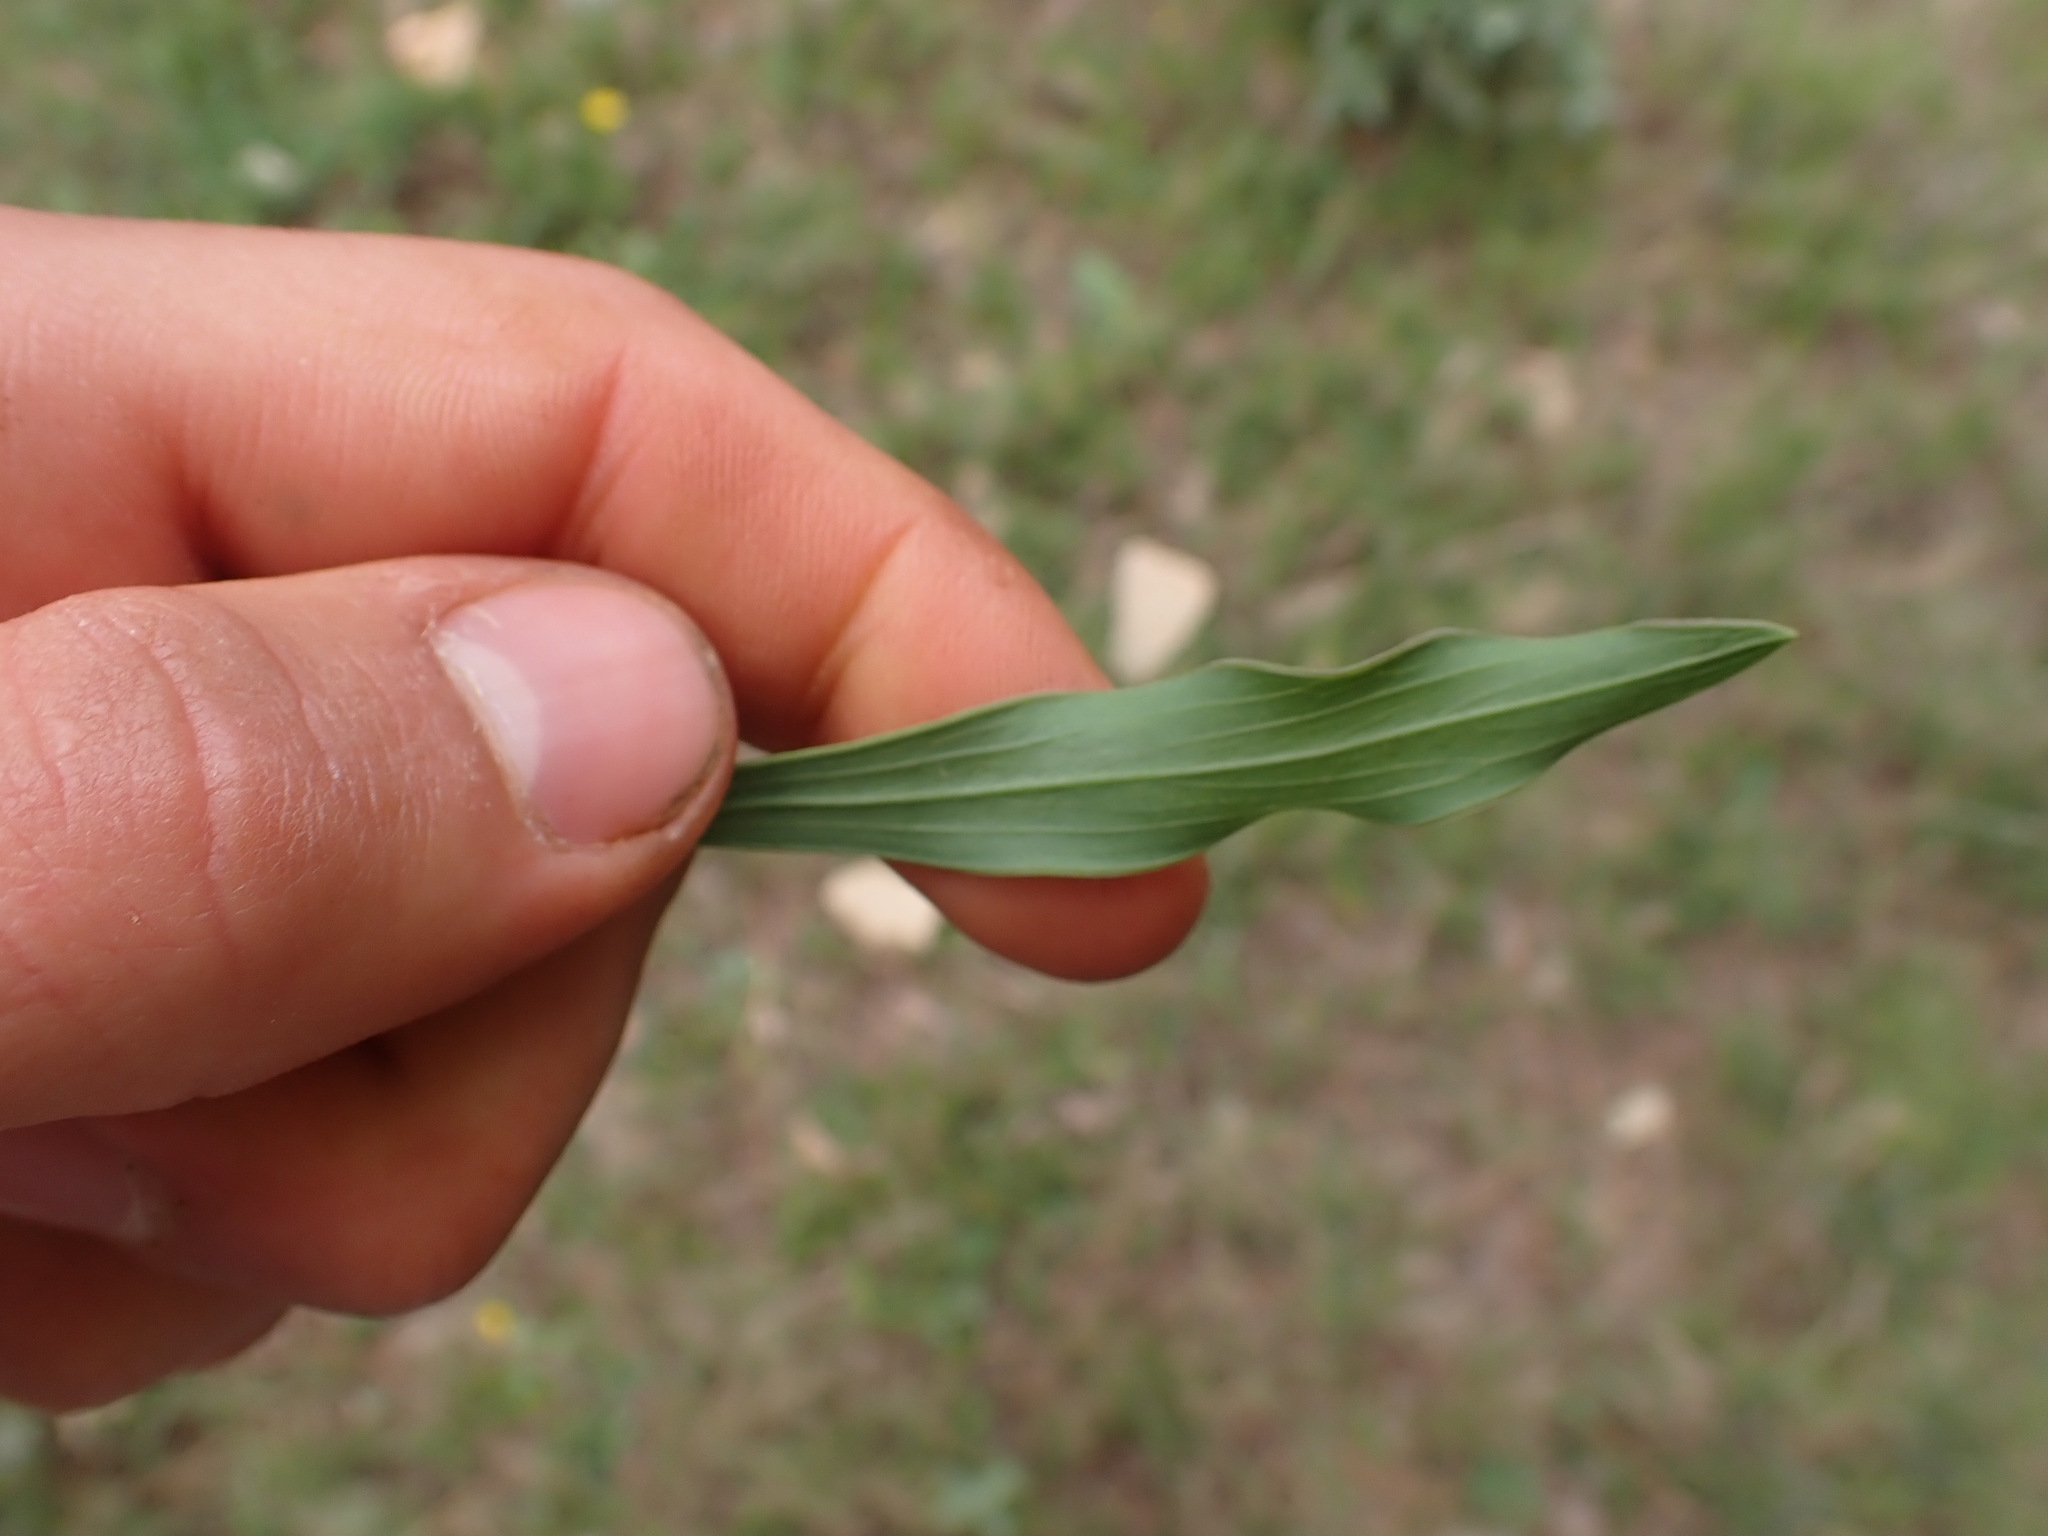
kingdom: Plantae
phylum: Tracheophyta
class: Magnoliopsida
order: Apiales
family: Apiaceae
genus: Bupleurum
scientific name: Bupleurum rigidum
